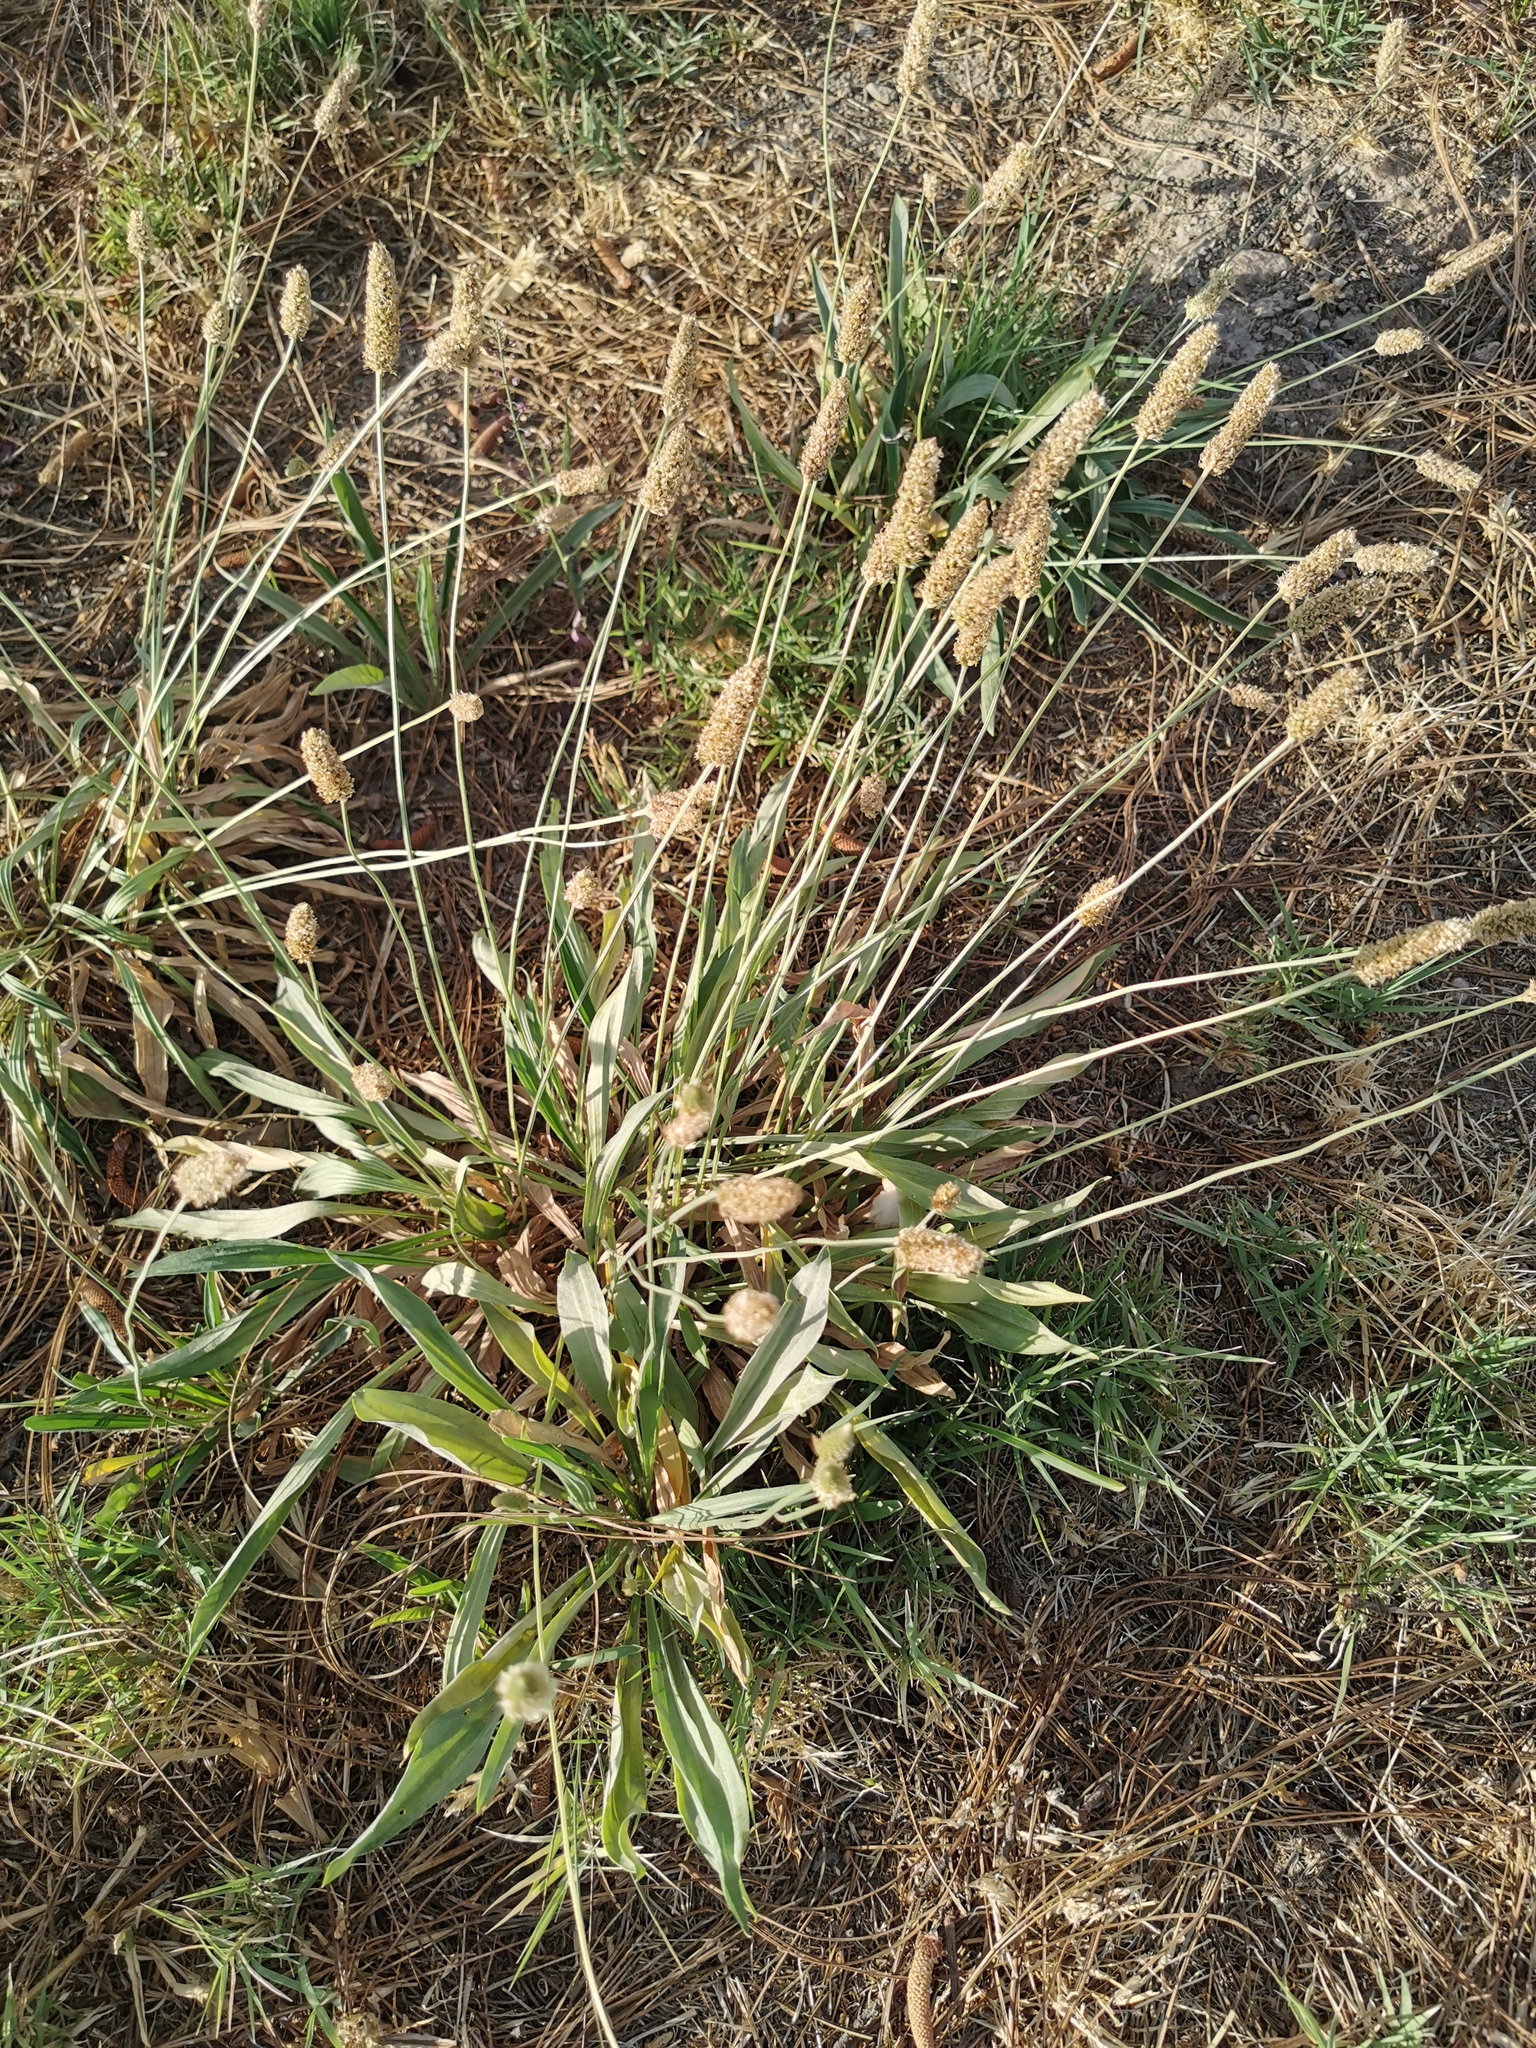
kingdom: Plantae
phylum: Tracheophyta
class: Magnoliopsida
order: Lamiales
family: Plantaginaceae
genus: Plantago
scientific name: Plantago lanceolata
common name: Ribwort plantain
